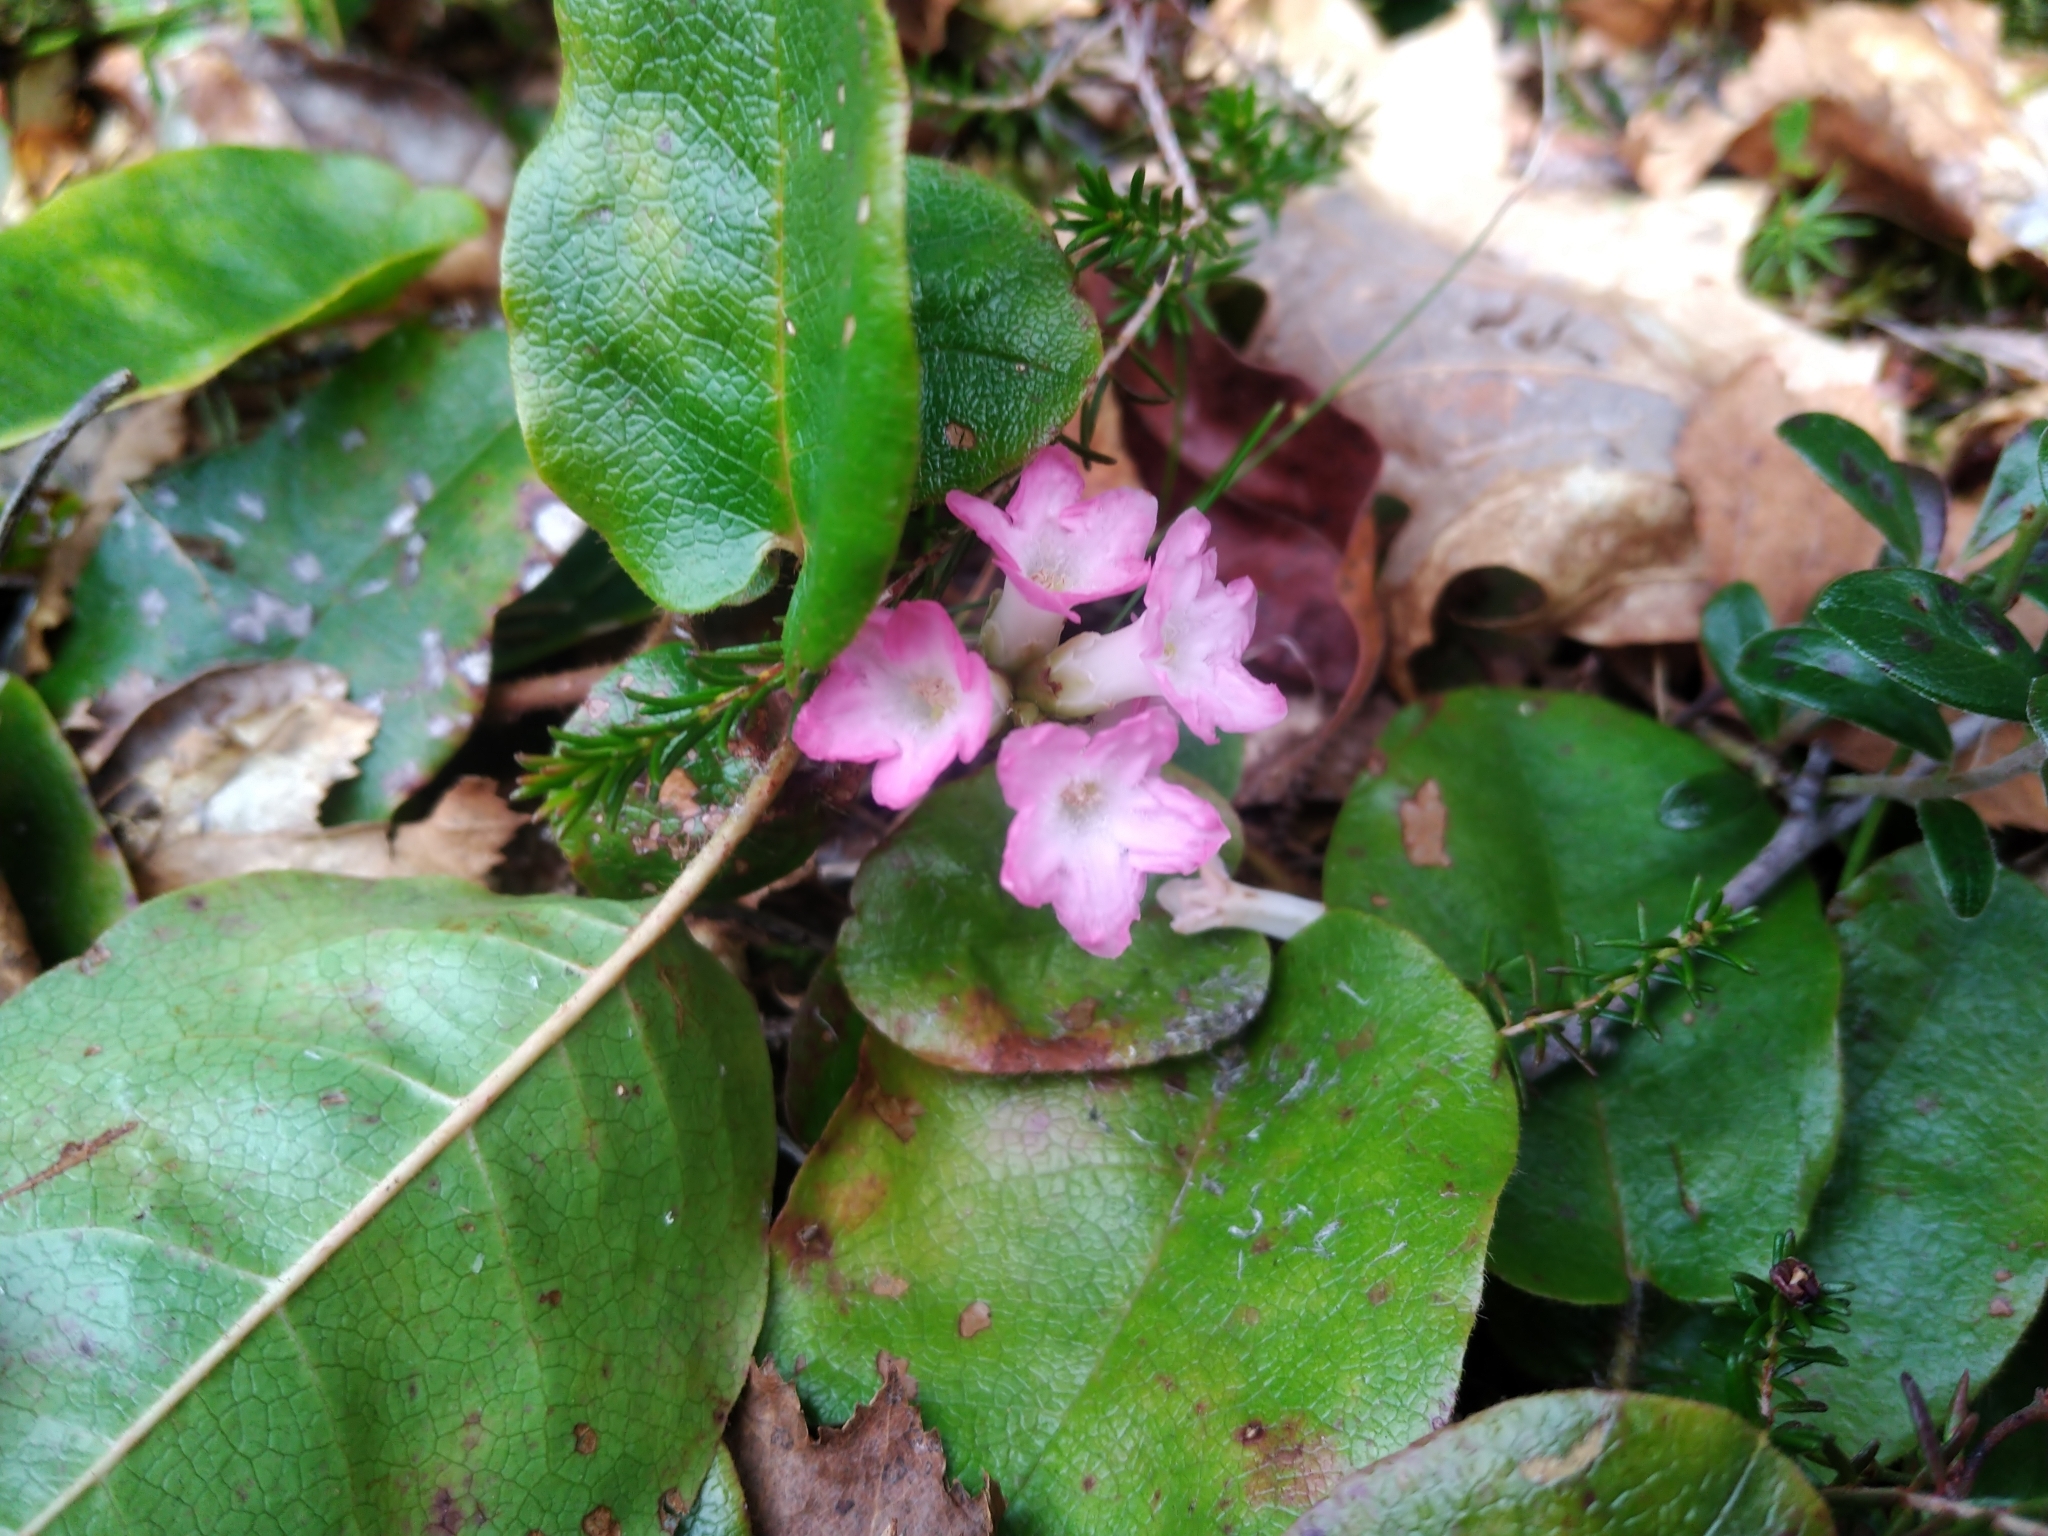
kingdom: Plantae
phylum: Tracheophyta
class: Magnoliopsida
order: Ericales
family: Ericaceae
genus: Epigaea
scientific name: Epigaea repens
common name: Gravelroot
